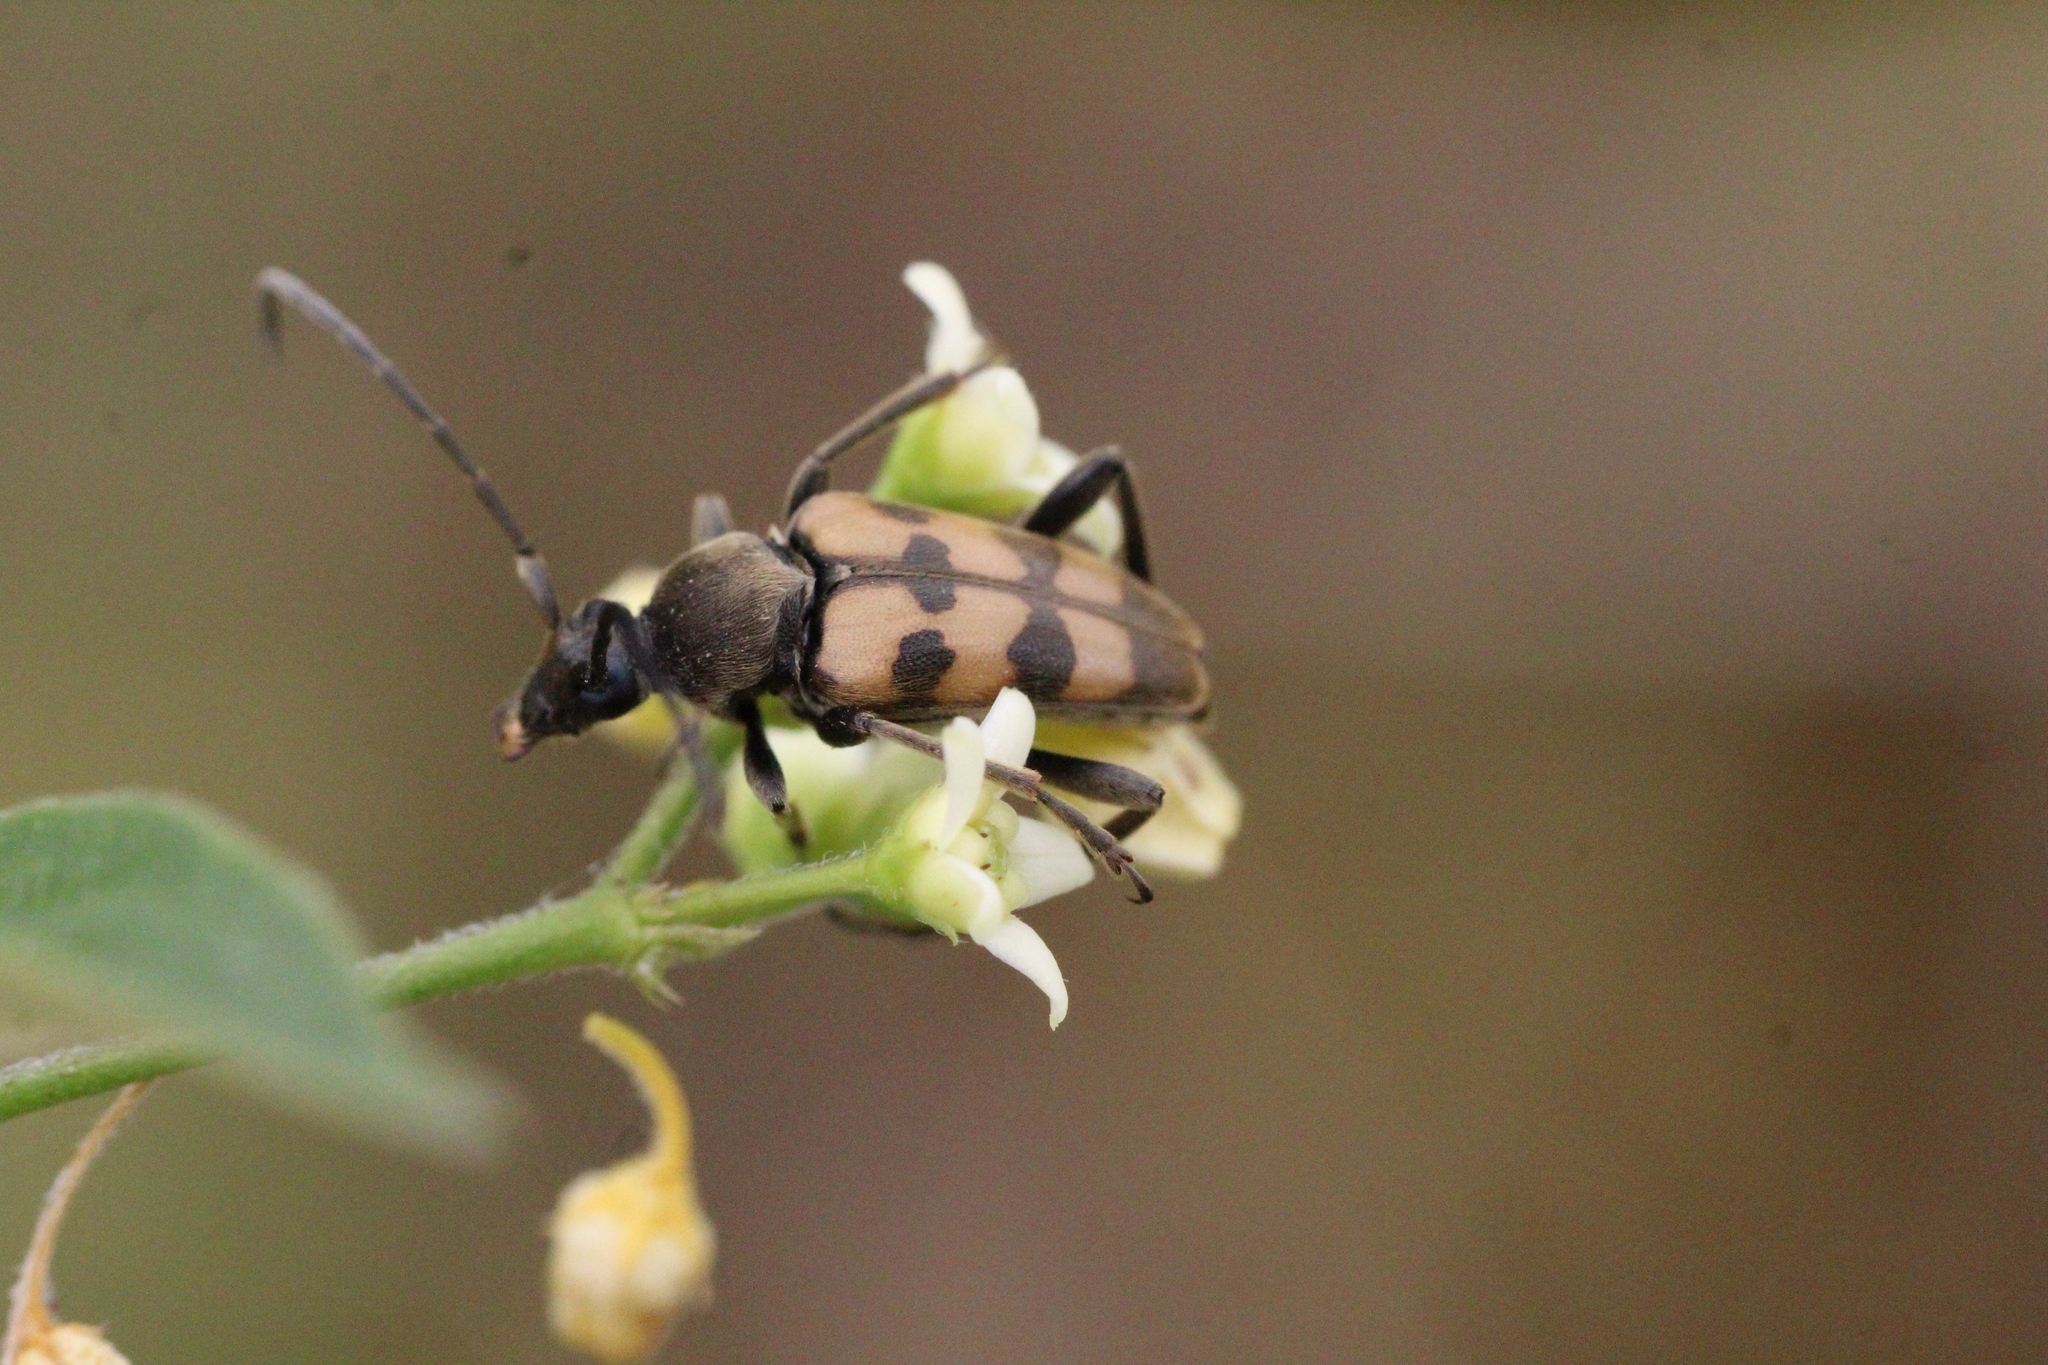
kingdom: Animalia
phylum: Arthropoda
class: Insecta
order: Coleoptera
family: Cerambycidae
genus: Pachytodes
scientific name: Pachytodes
